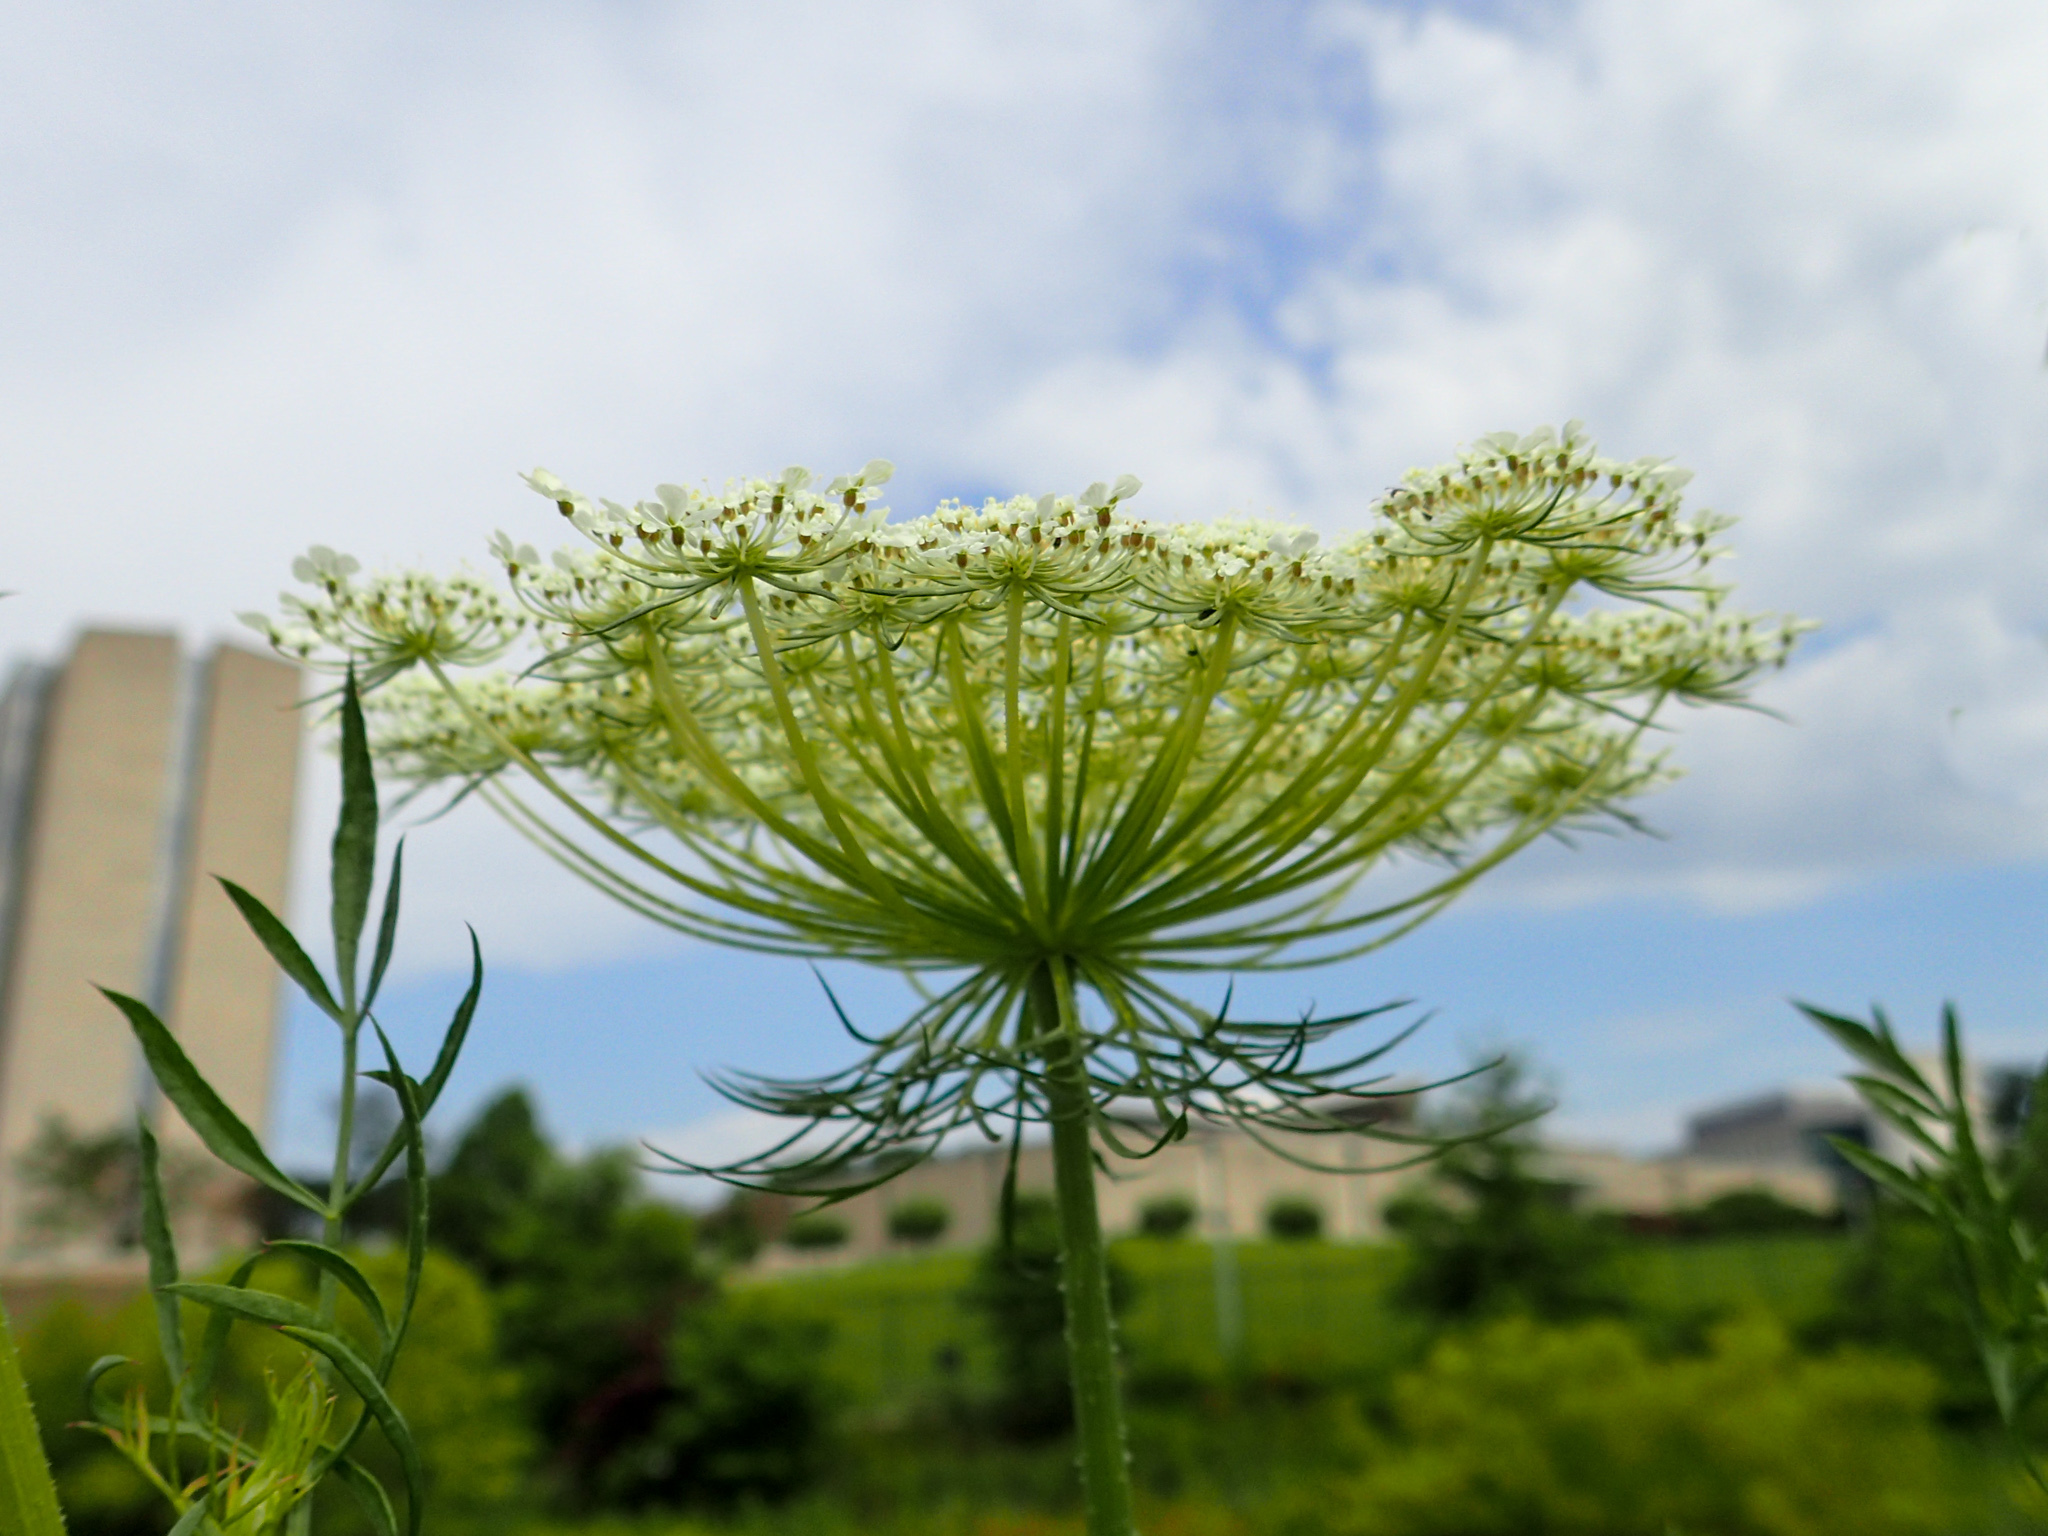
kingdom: Plantae
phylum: Tracheophyta
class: Magnoliopsida
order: Apiales
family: Apiaceae
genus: Daucus
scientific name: Daucus carota
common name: Wild carrot
